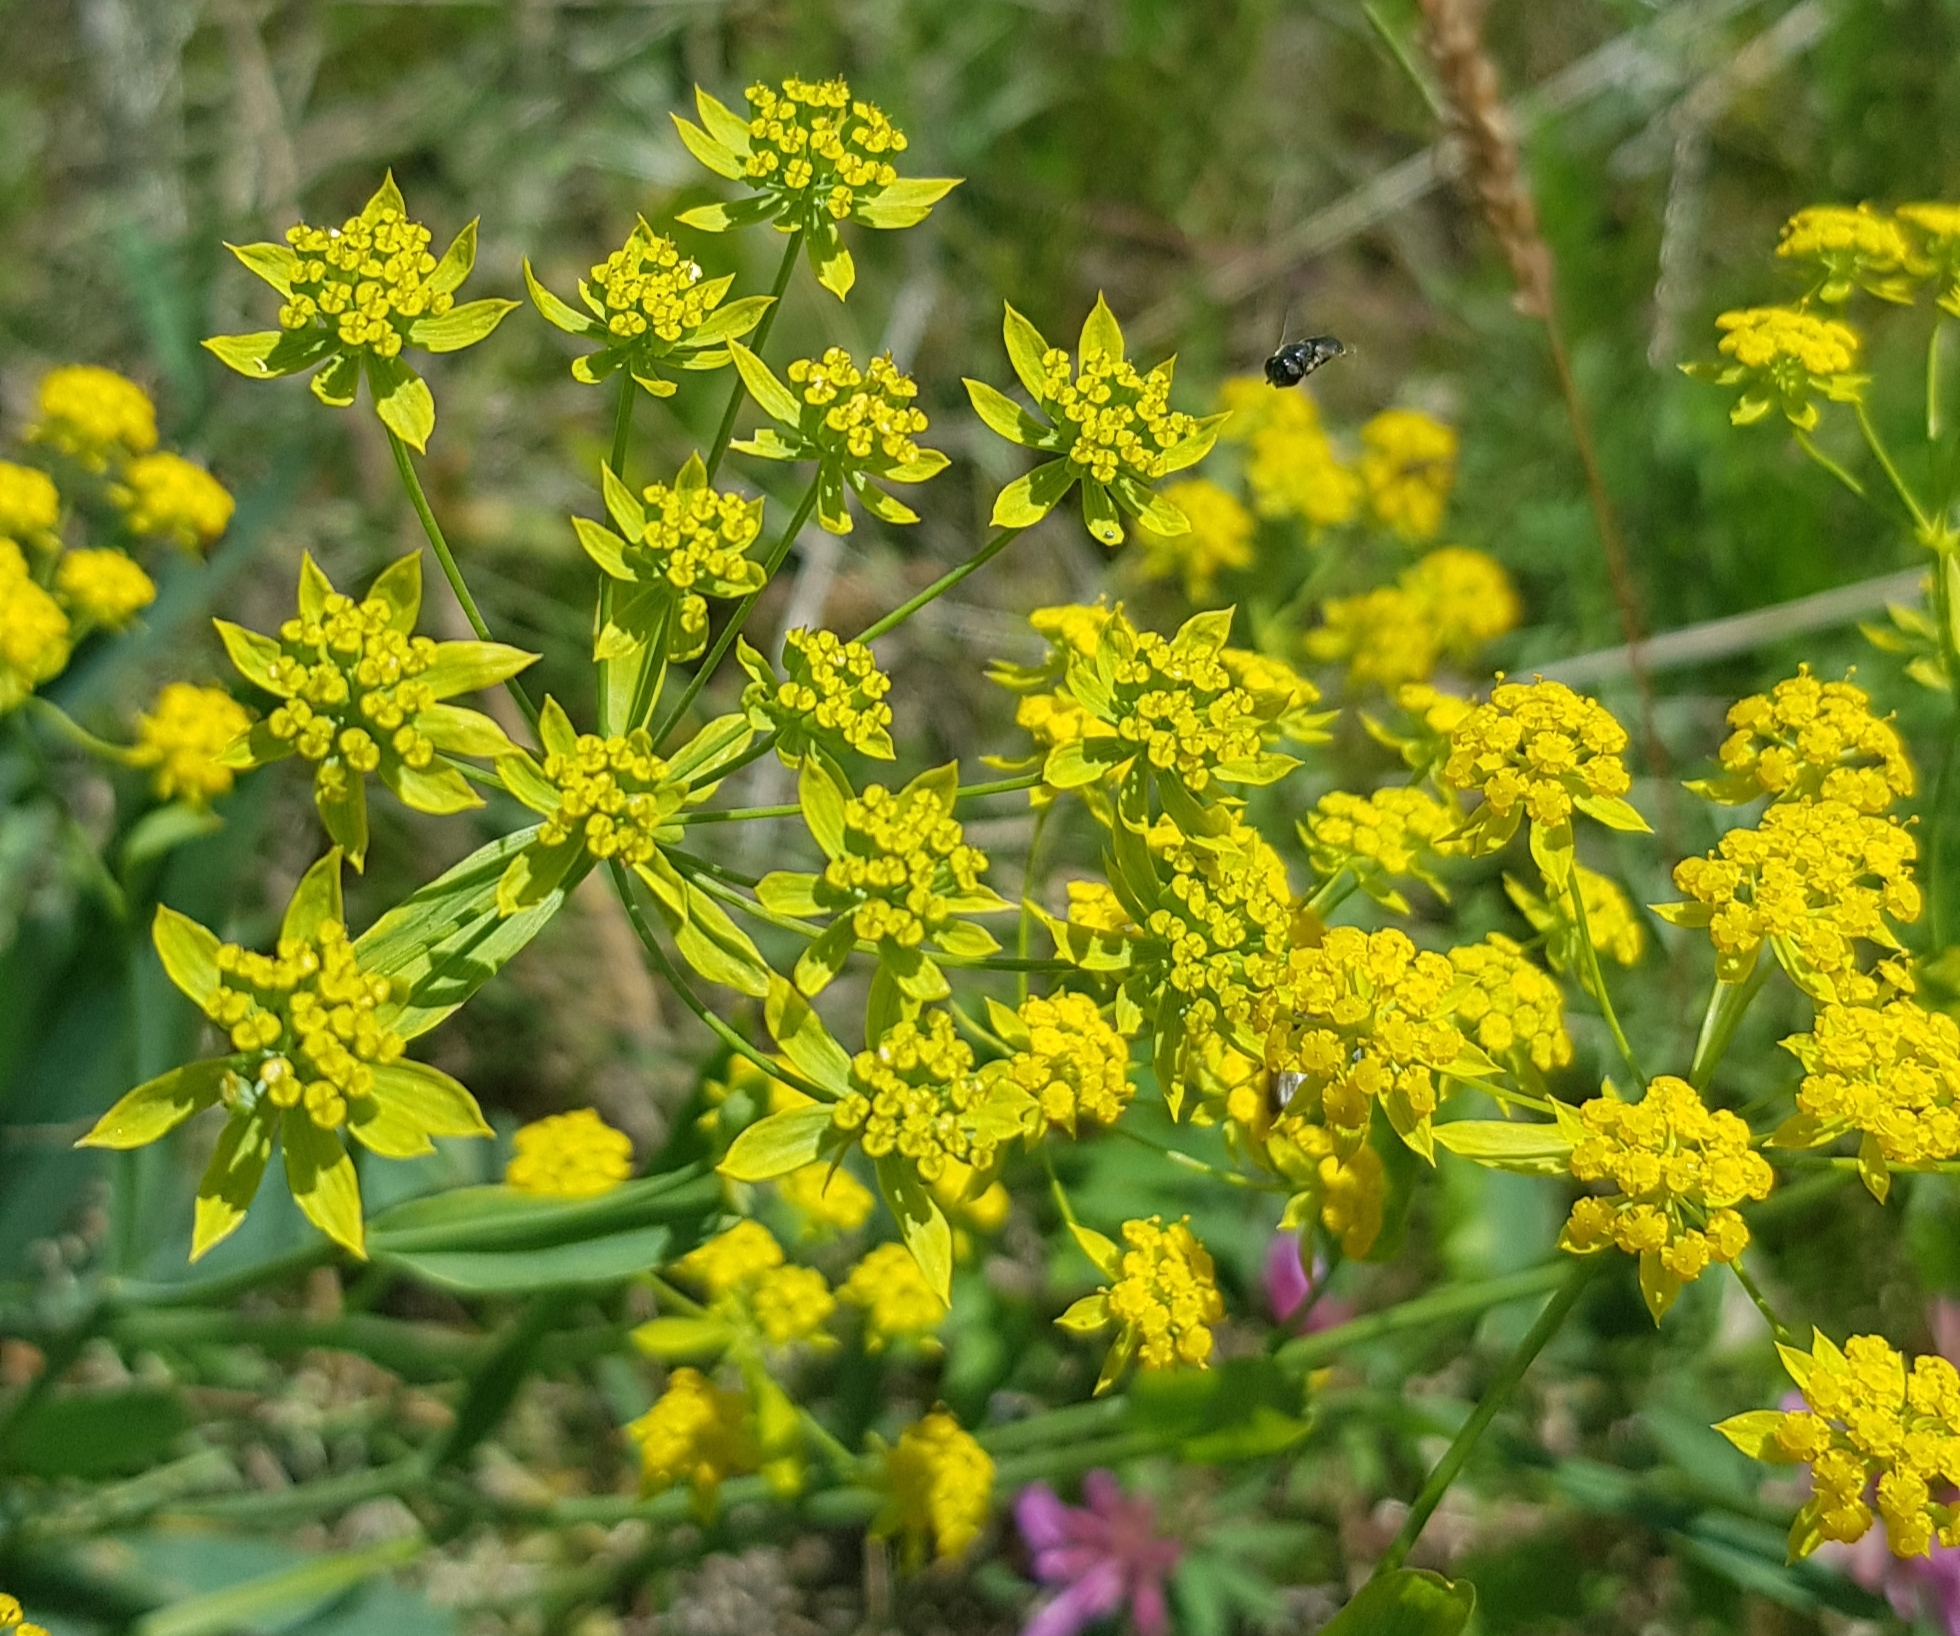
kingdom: Plantae
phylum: Tracheophyta
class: Magnoliopsida
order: Apiales
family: Apiaceae
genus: Bupleurum
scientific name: Bupleurum sibiricum
